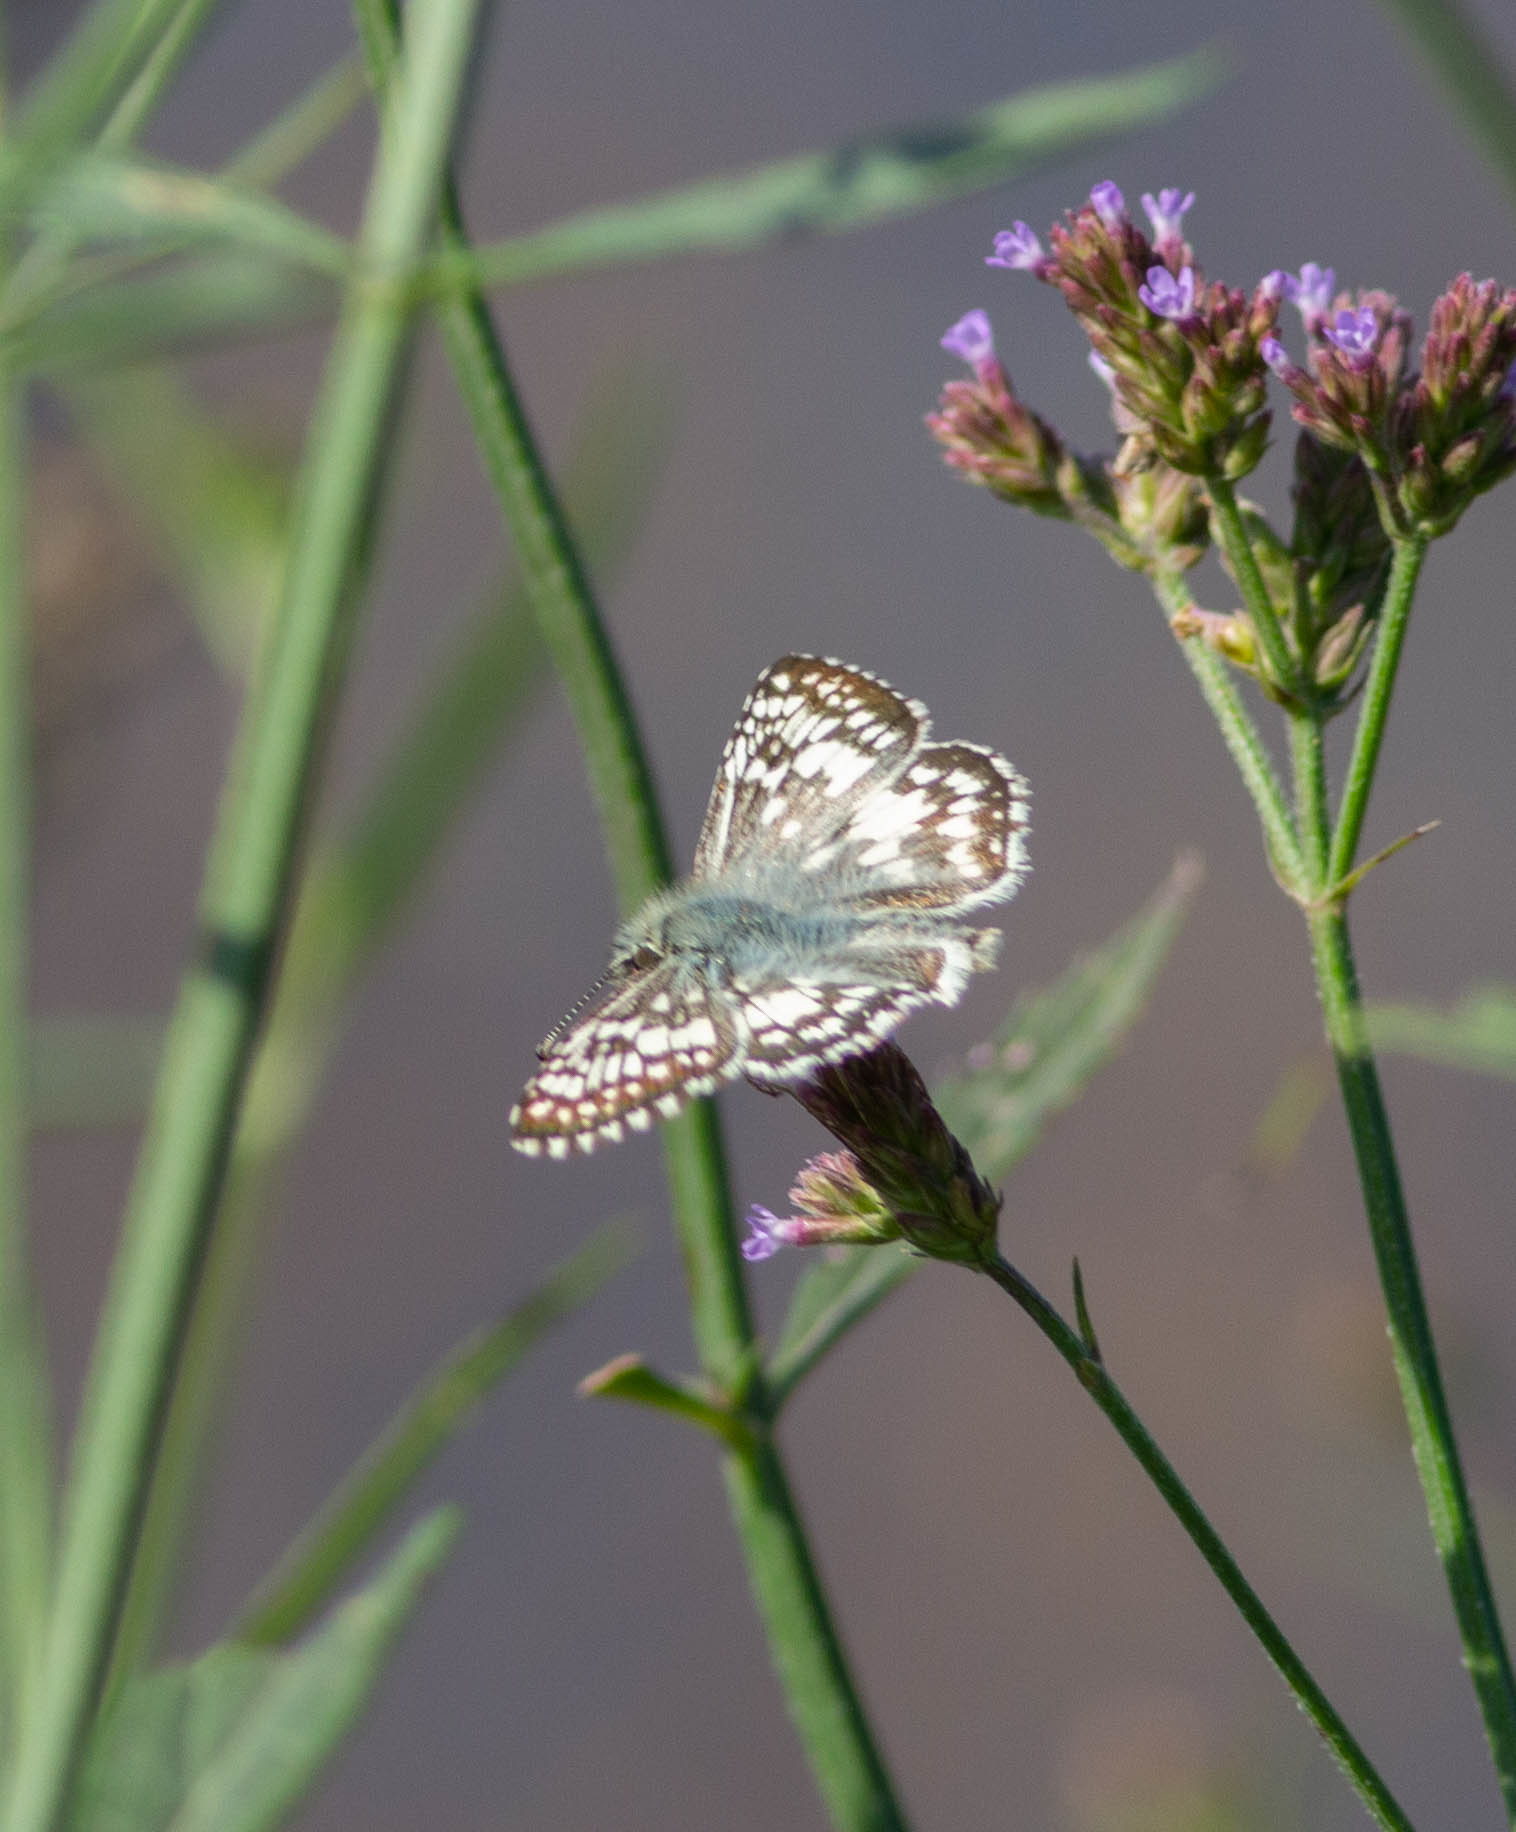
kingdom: Animalia
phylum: Arthropoda
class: Insecta
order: Lepidoptera
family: Hesperiidae
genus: Burnsius
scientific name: Burnsius
